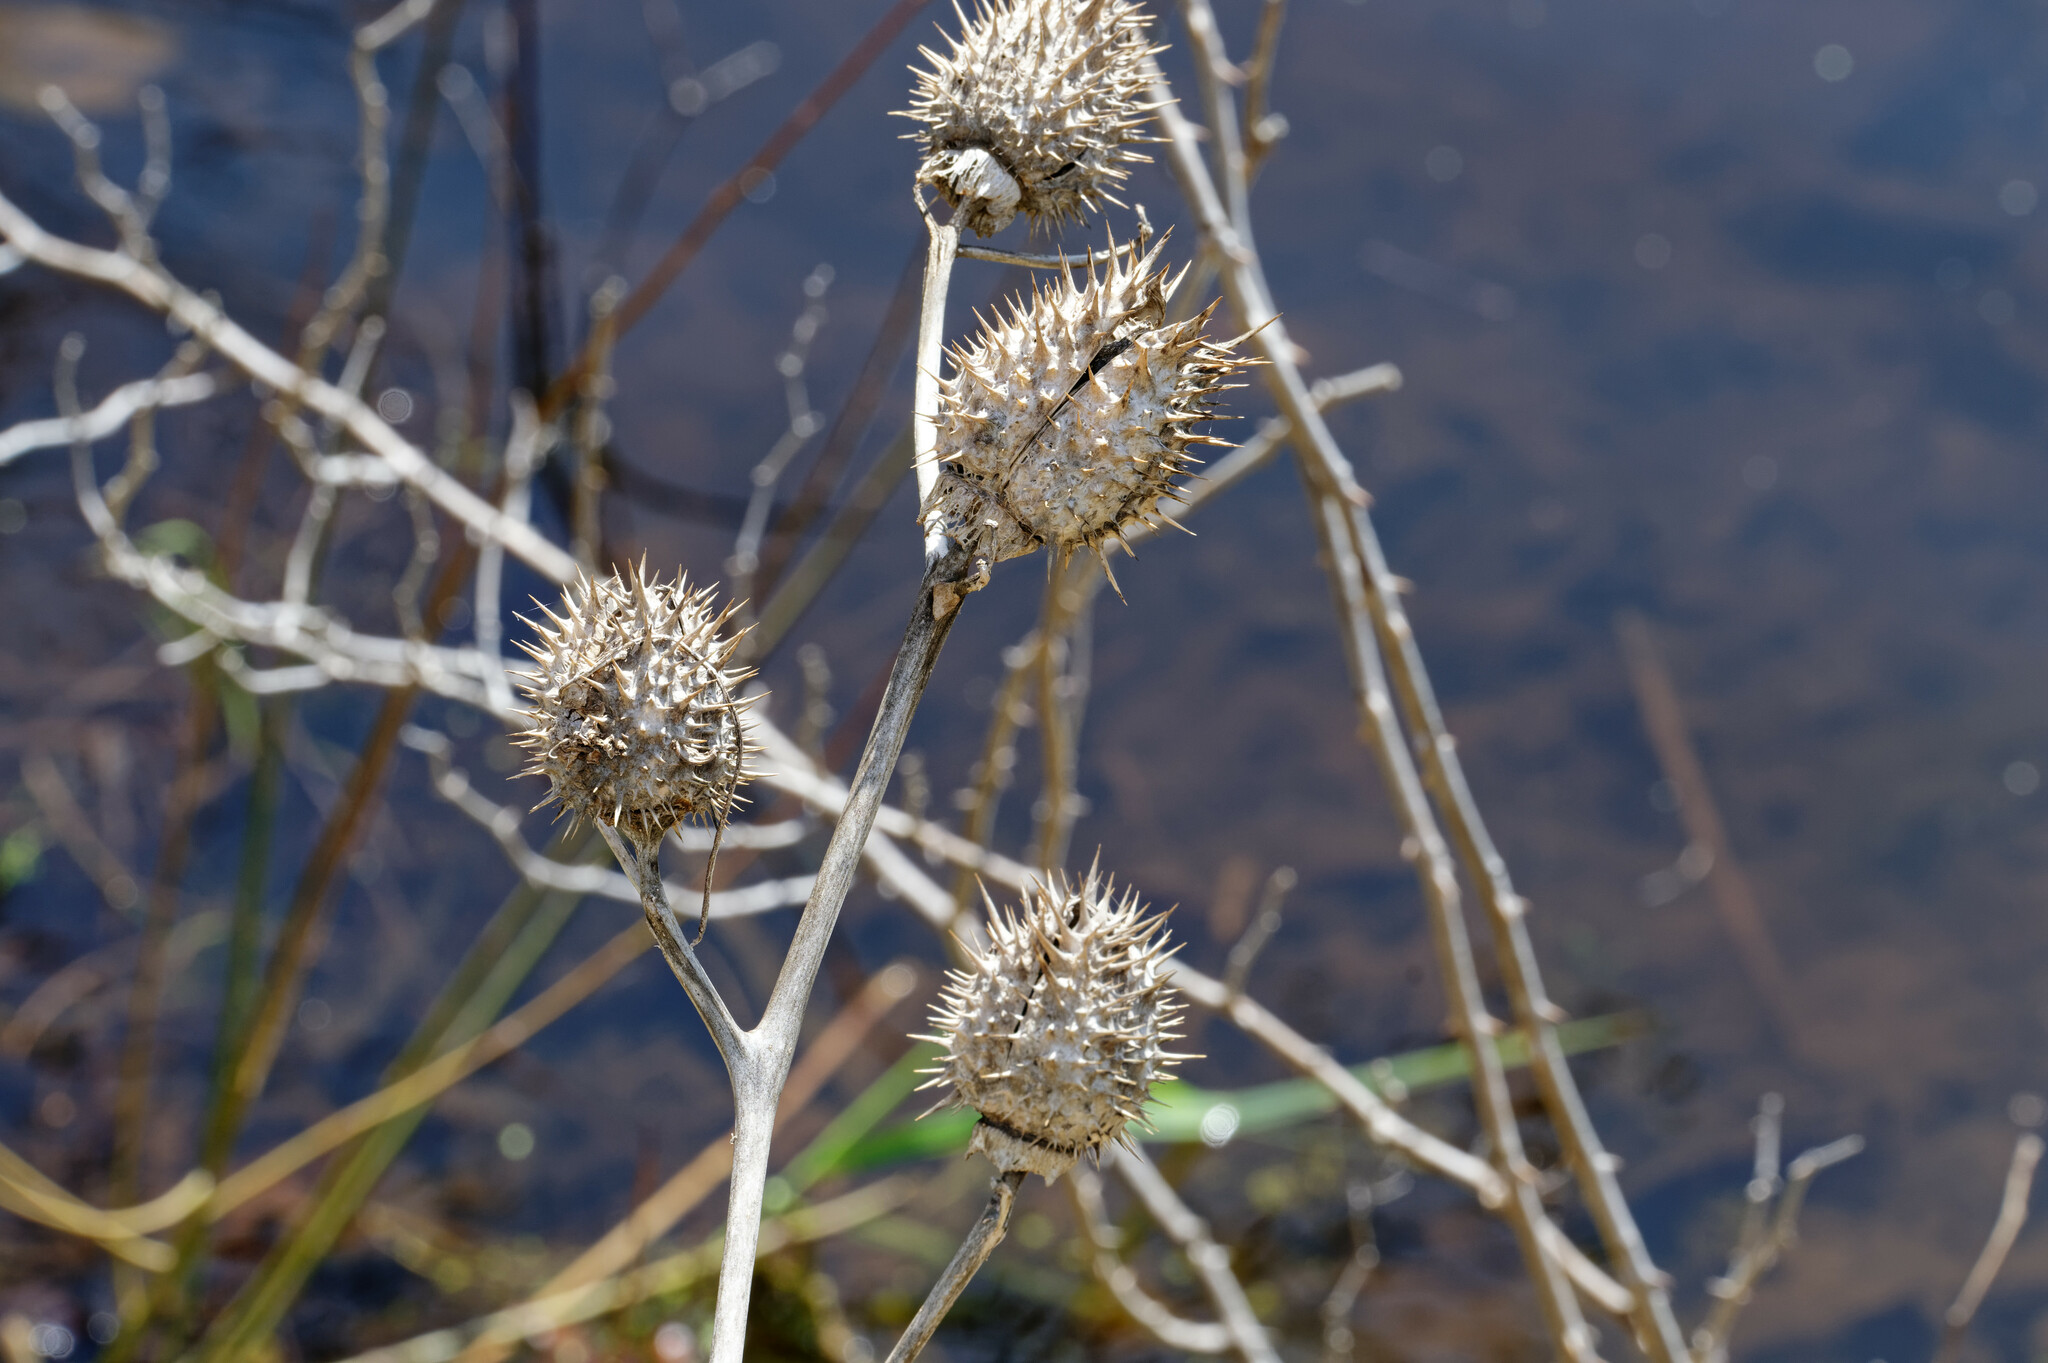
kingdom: Plantae
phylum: Tracheophyta
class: Magnoliopsida
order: Solanales
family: Solanaceae
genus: Datura
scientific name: Datura stramonium
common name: Thorn-apple
